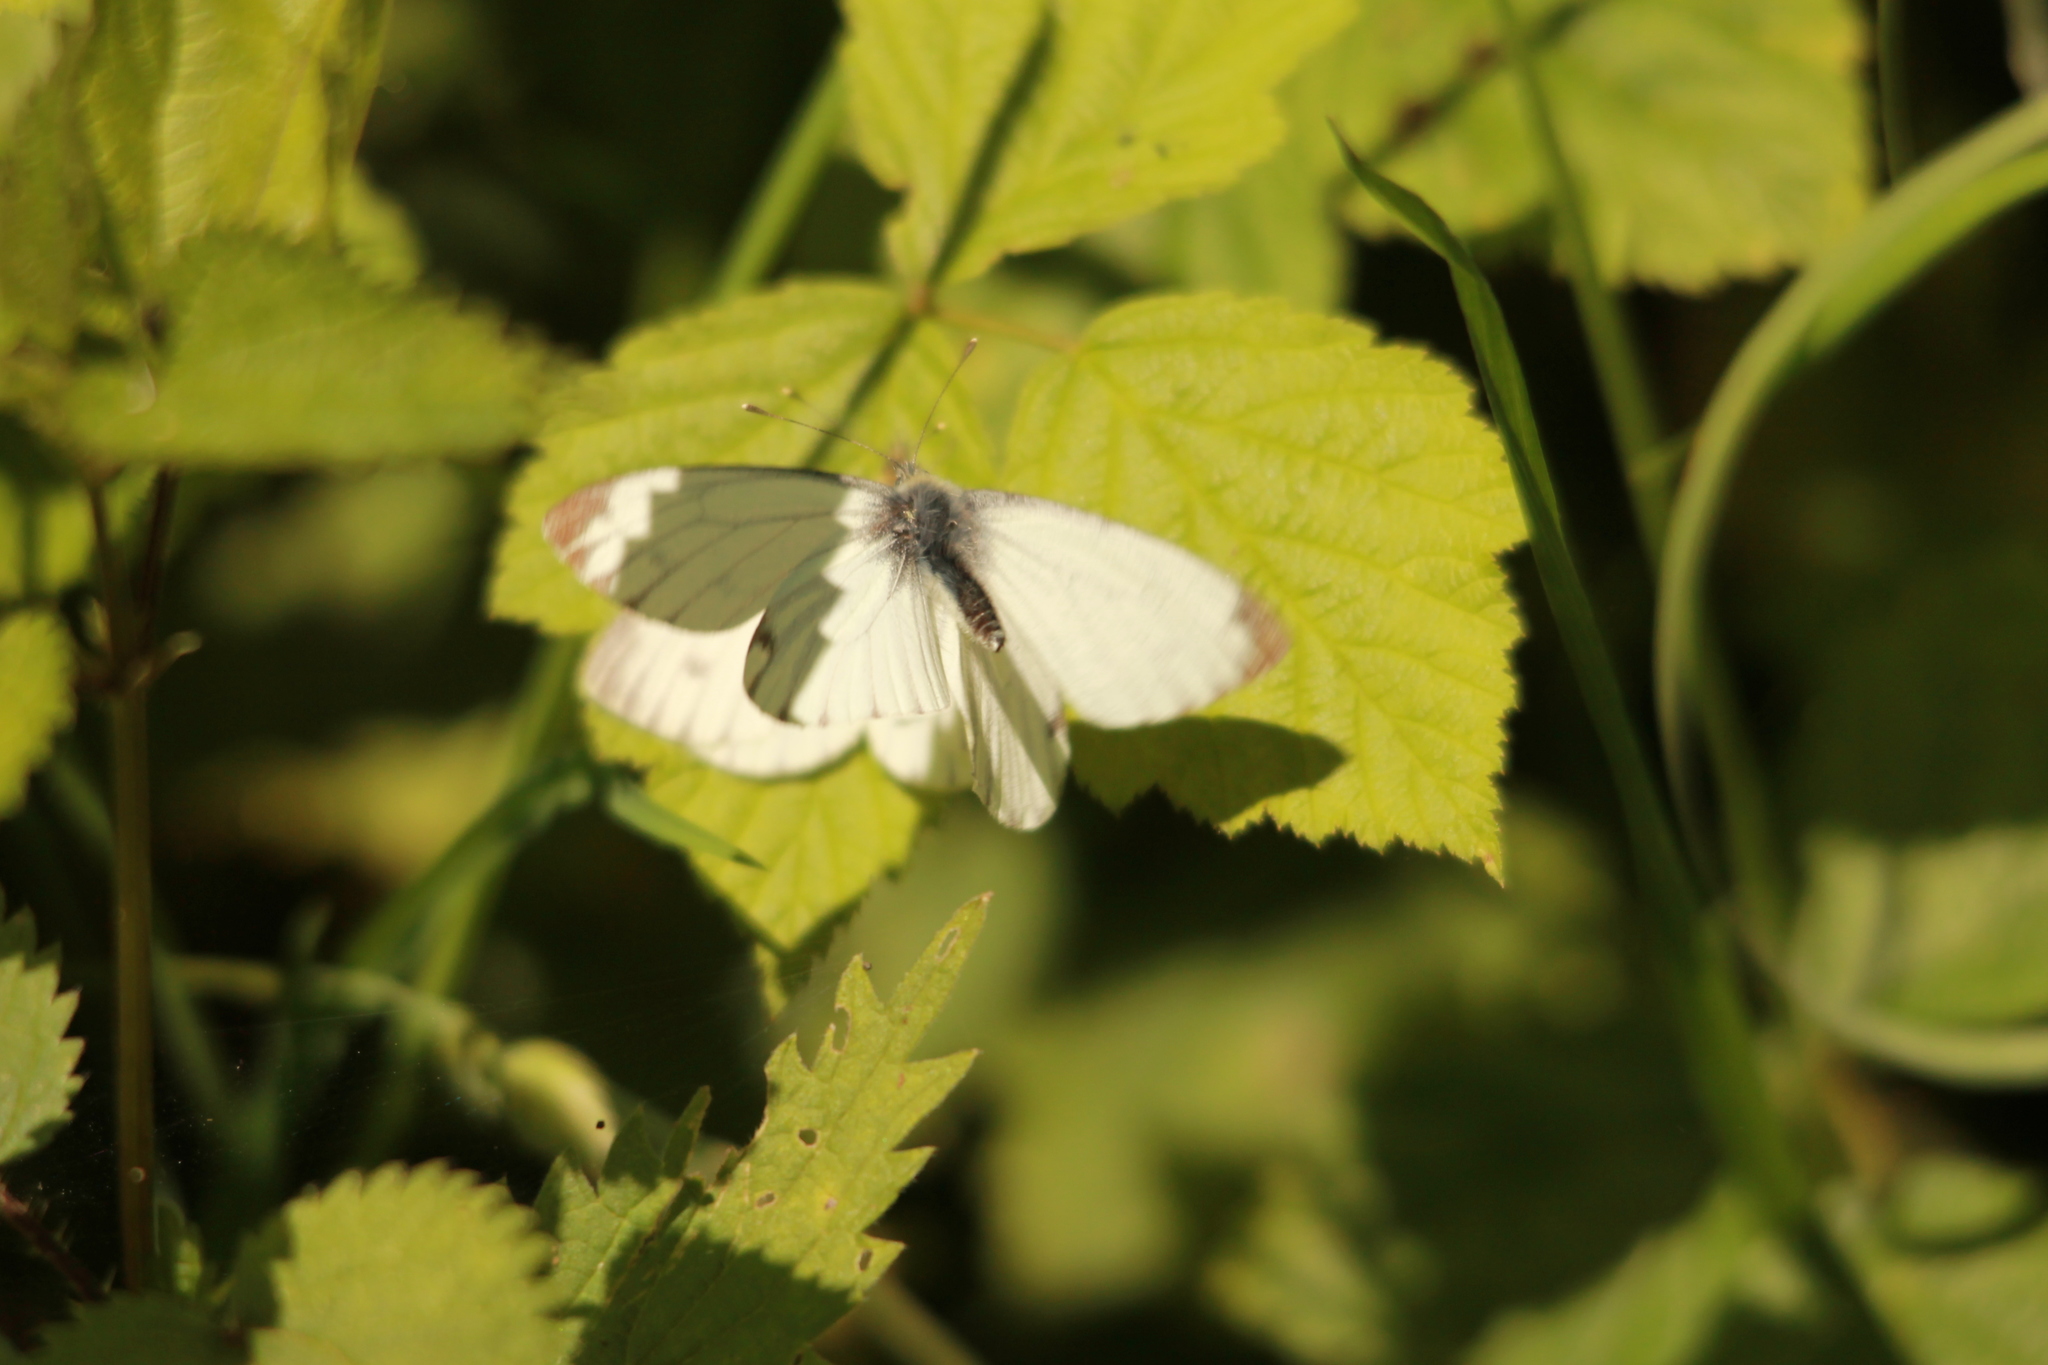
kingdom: Animalia
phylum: Arthropoda
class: Insecta
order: Lepidoptera
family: Pieridae
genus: Pieris
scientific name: Pieris napi
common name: Green-veined white
